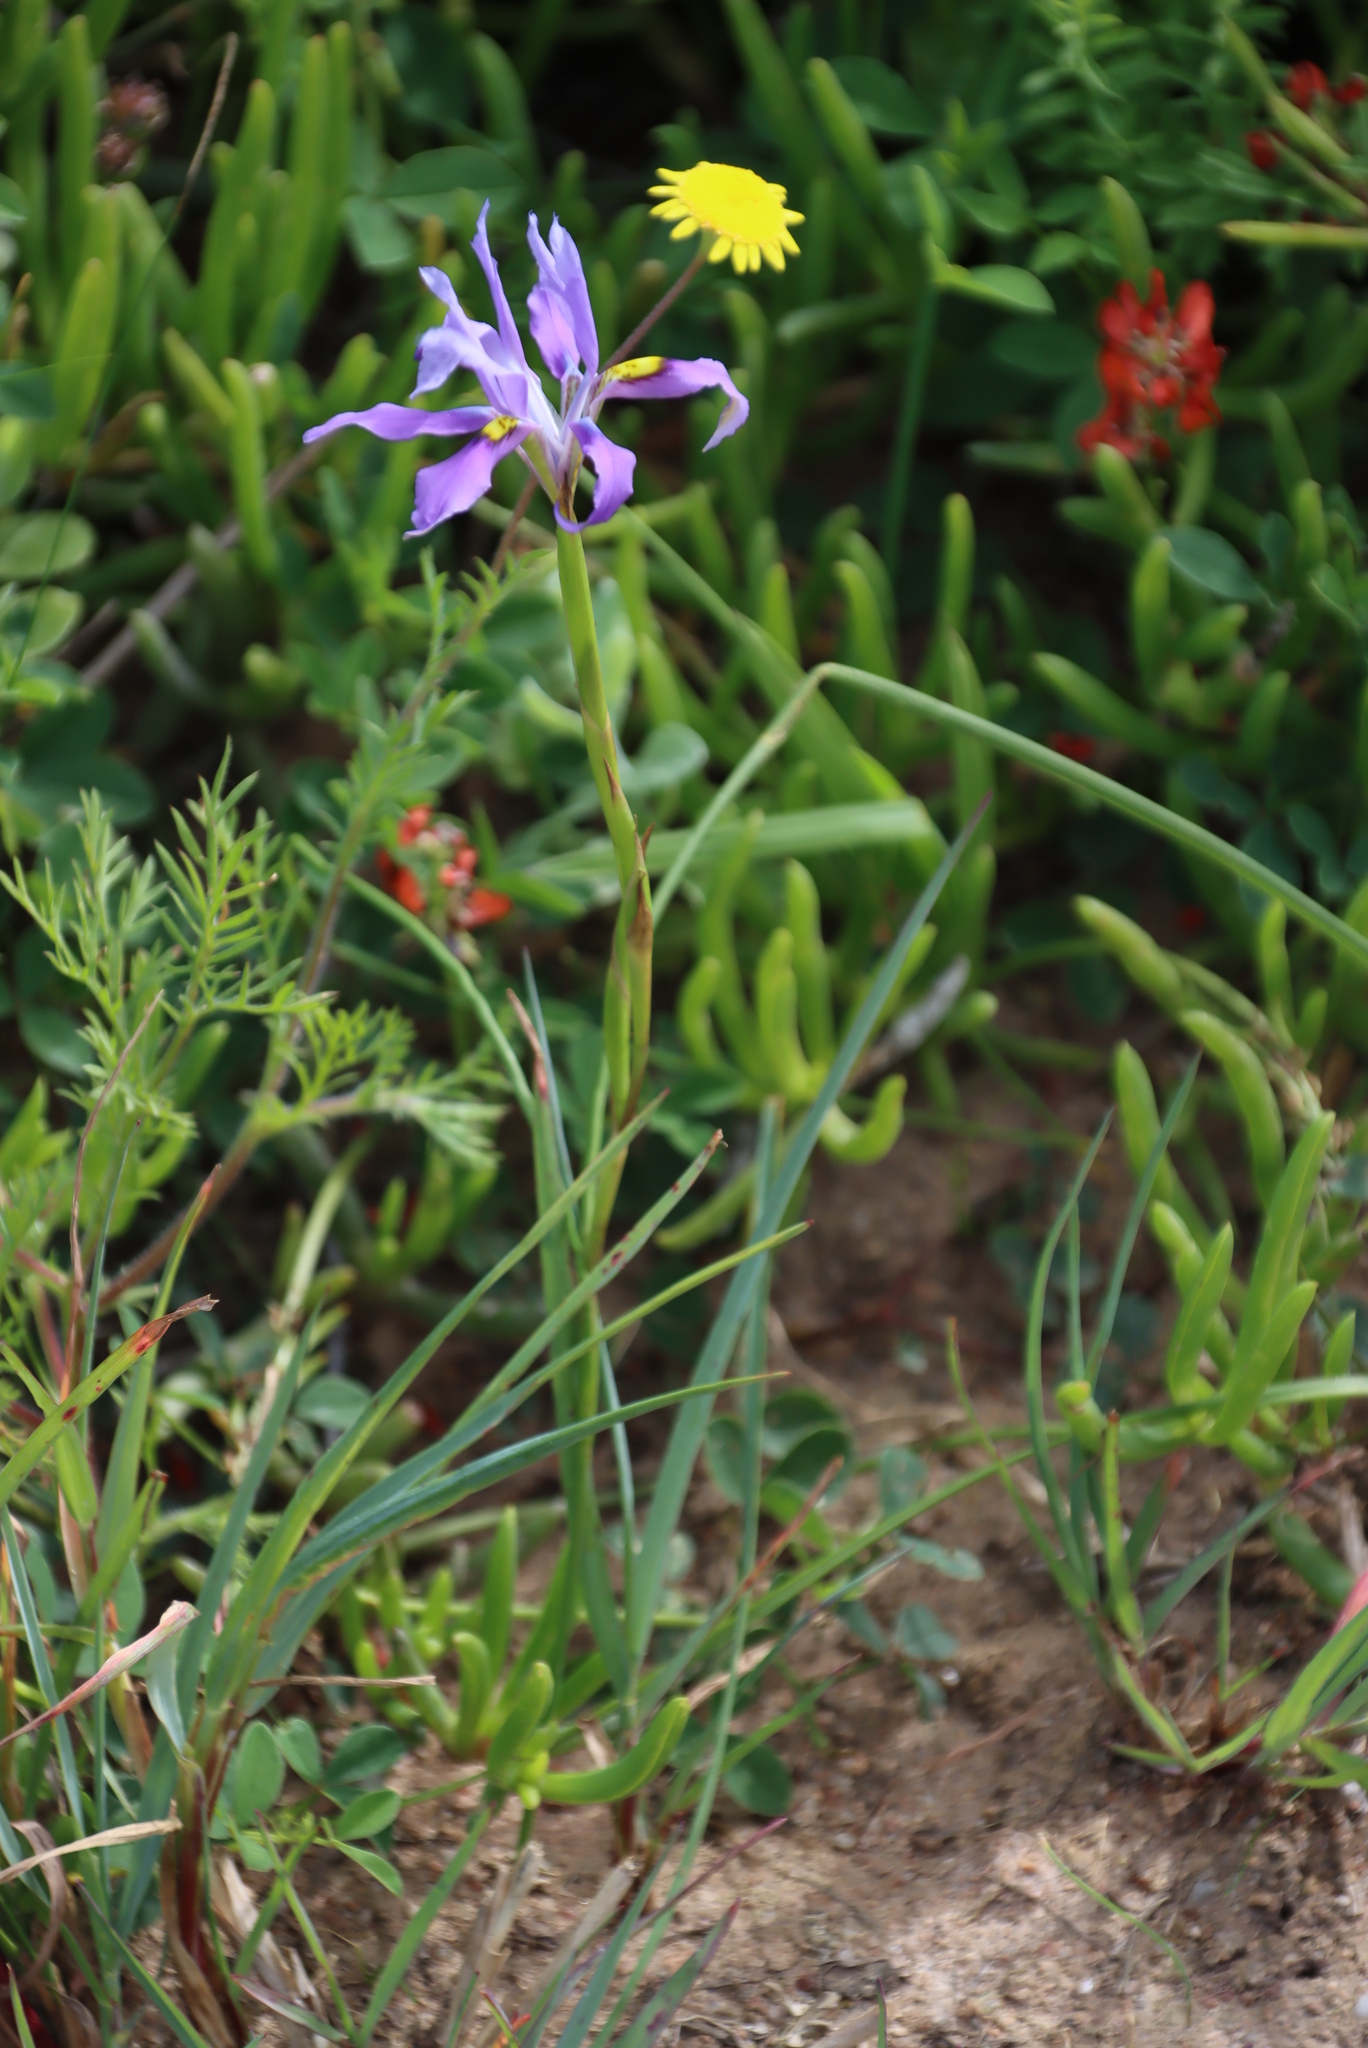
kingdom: Plantae
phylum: Tracheophyta
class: Liliopsida
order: Asparagales
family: Iridaceae
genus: Moraea
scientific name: Moraea fugax
